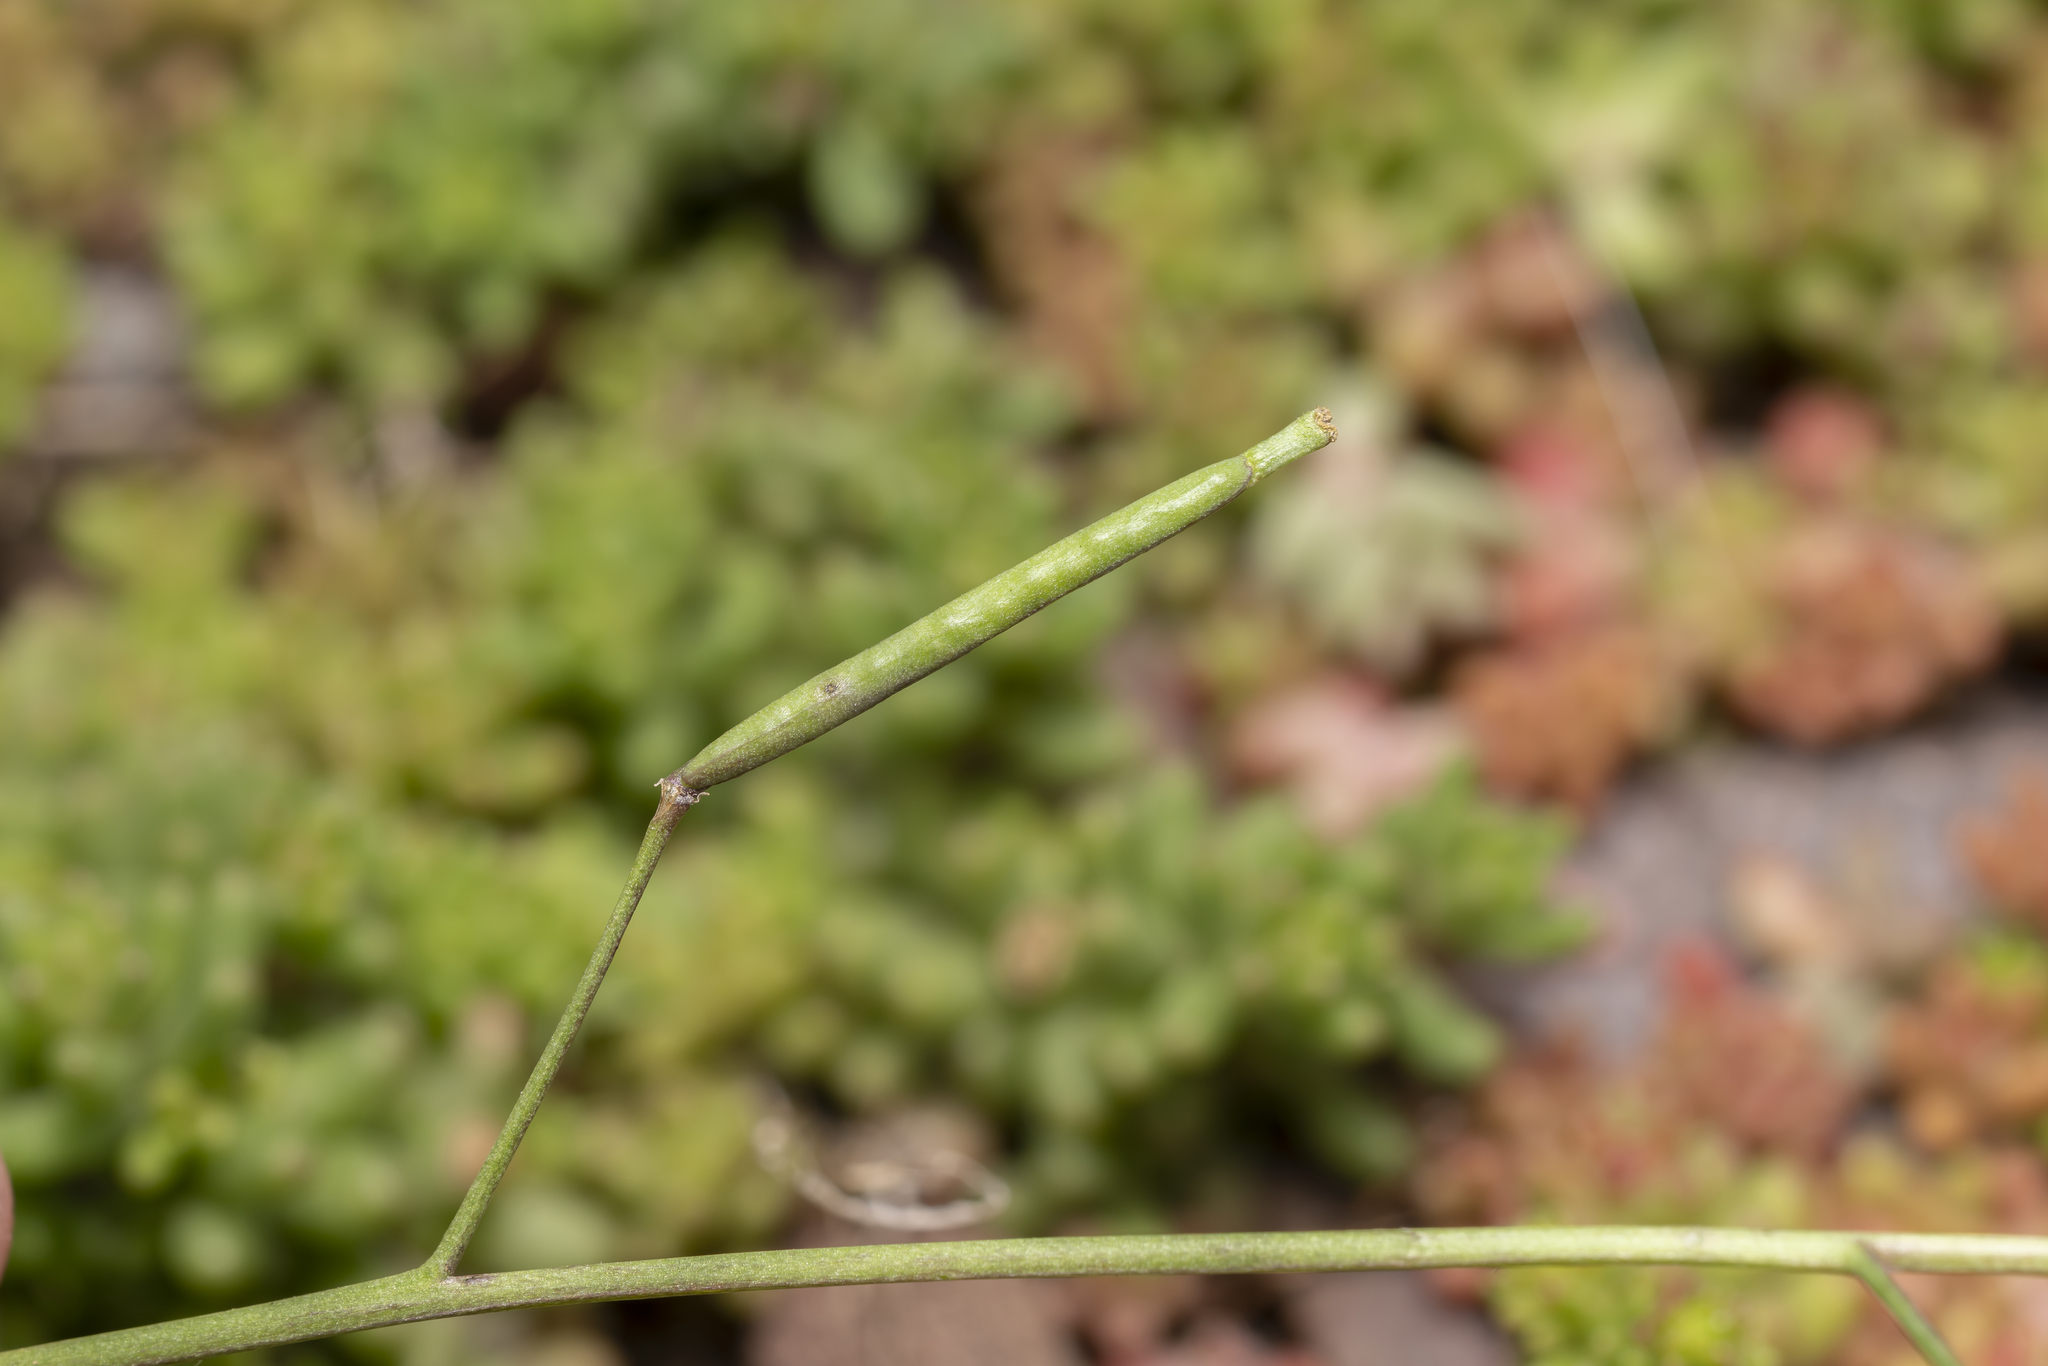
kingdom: Plantae
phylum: Tracheophyta
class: Magnoliopsida
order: Brassicales
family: Brassicaceae
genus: Diplotaxis
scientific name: Diplotaxis muralis
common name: Annual wall-rocket
